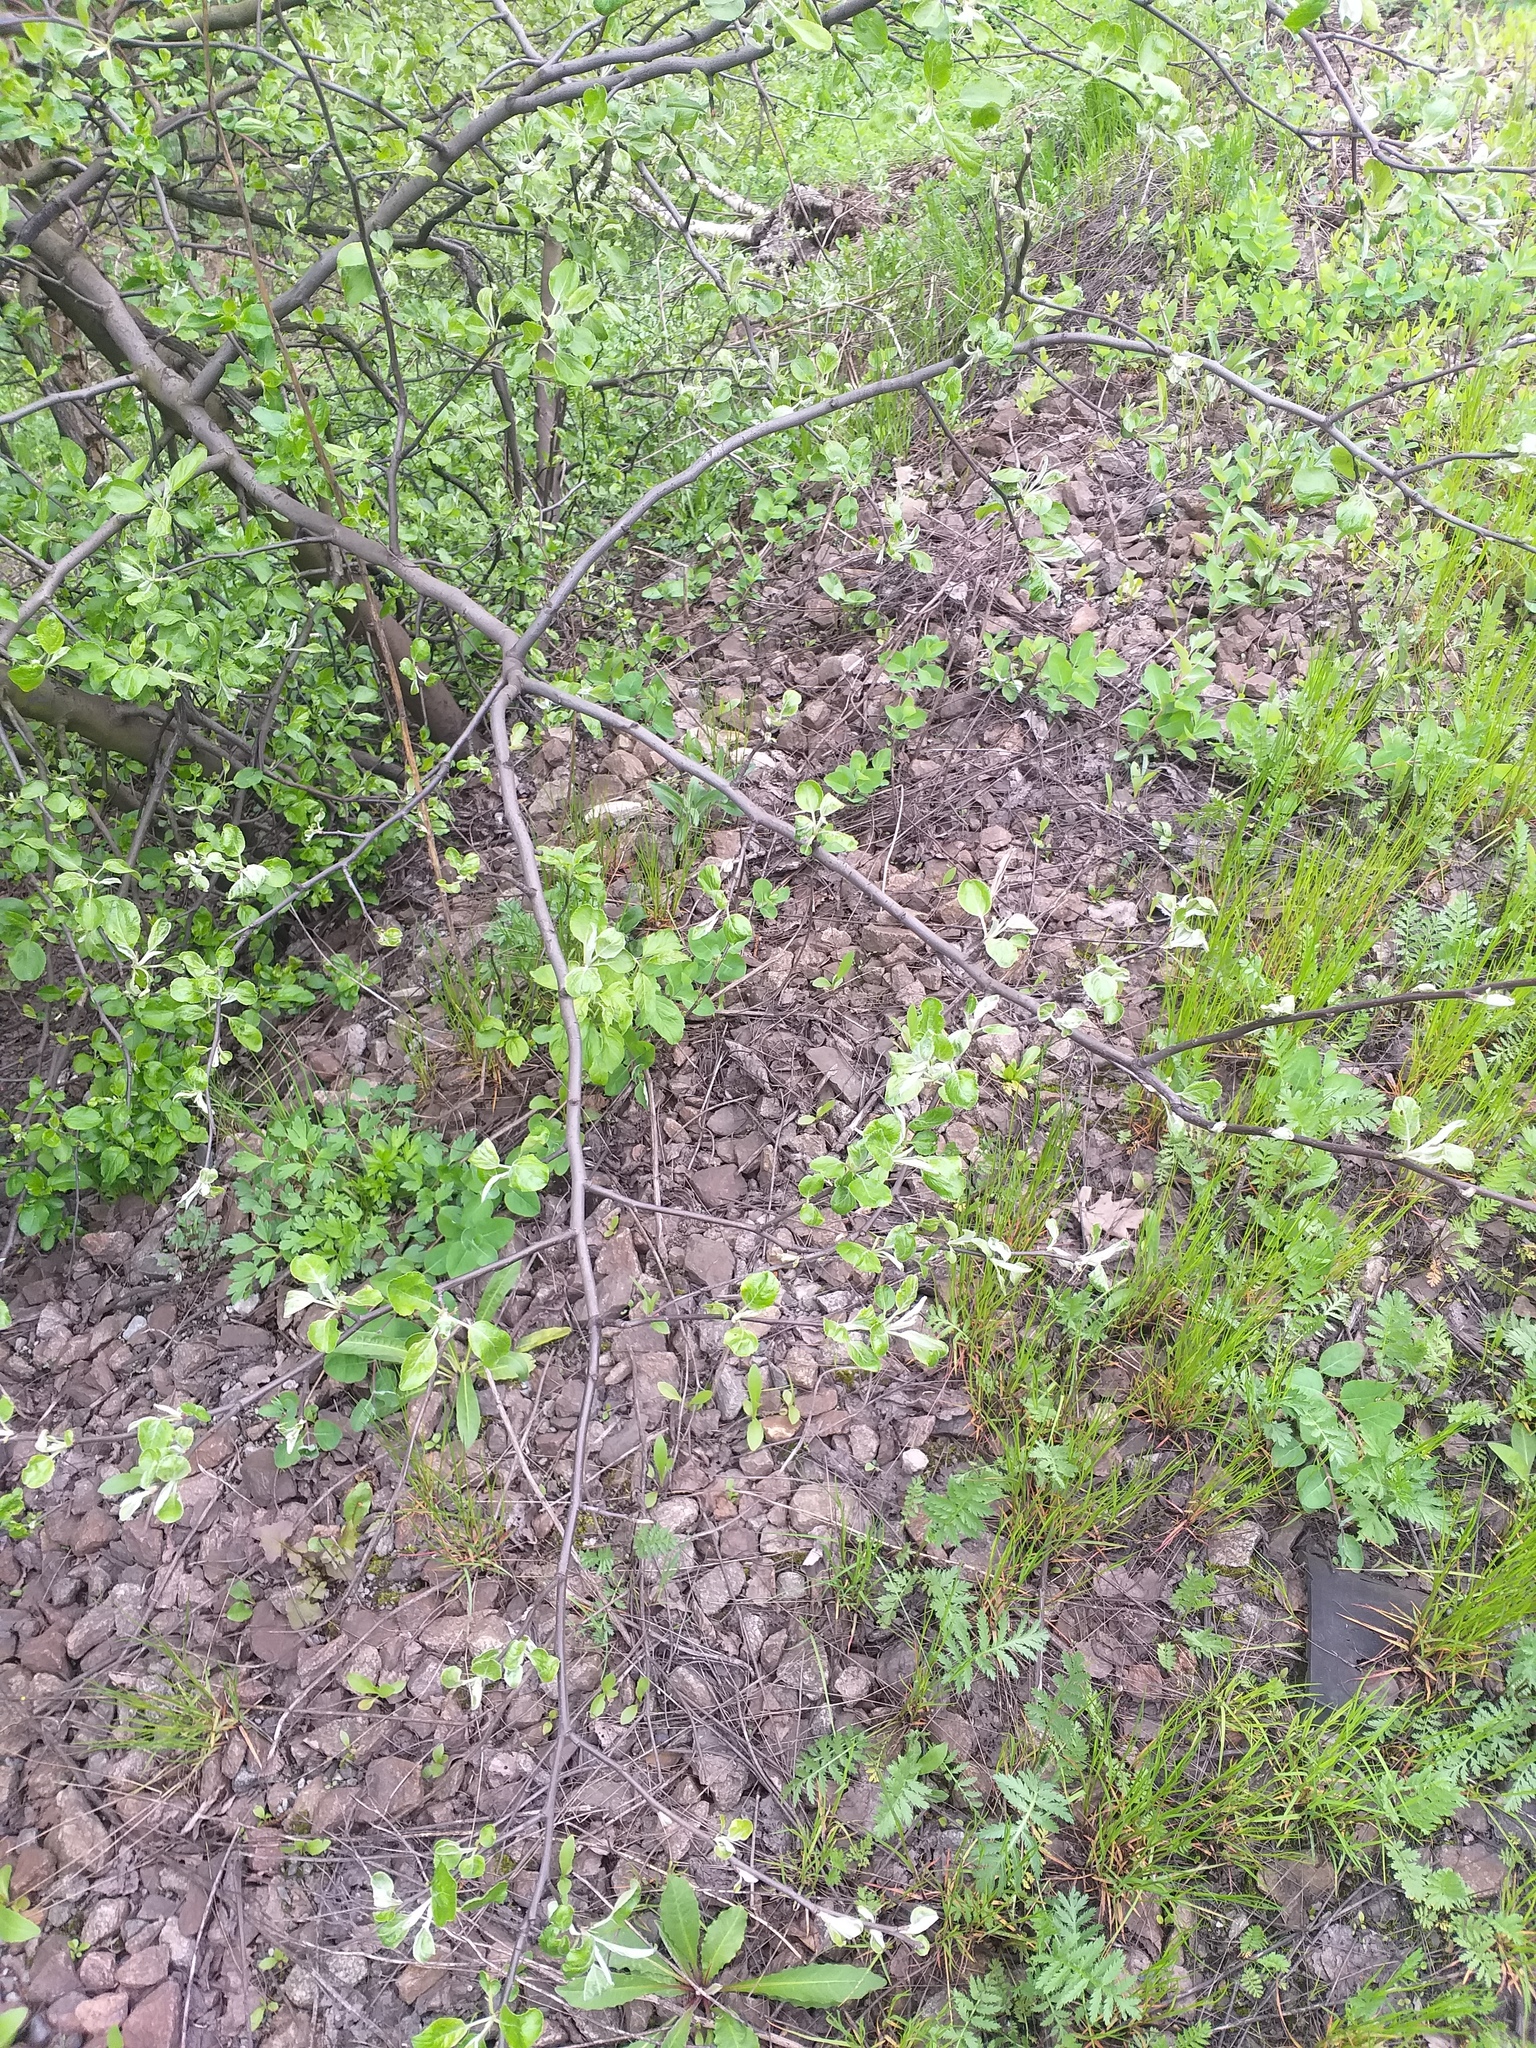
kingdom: Plantae
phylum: Tracheophyta
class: Magnoliopsida
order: Rosales
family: Rosaceae
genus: Malus
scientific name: Malus domestica
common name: Apple
